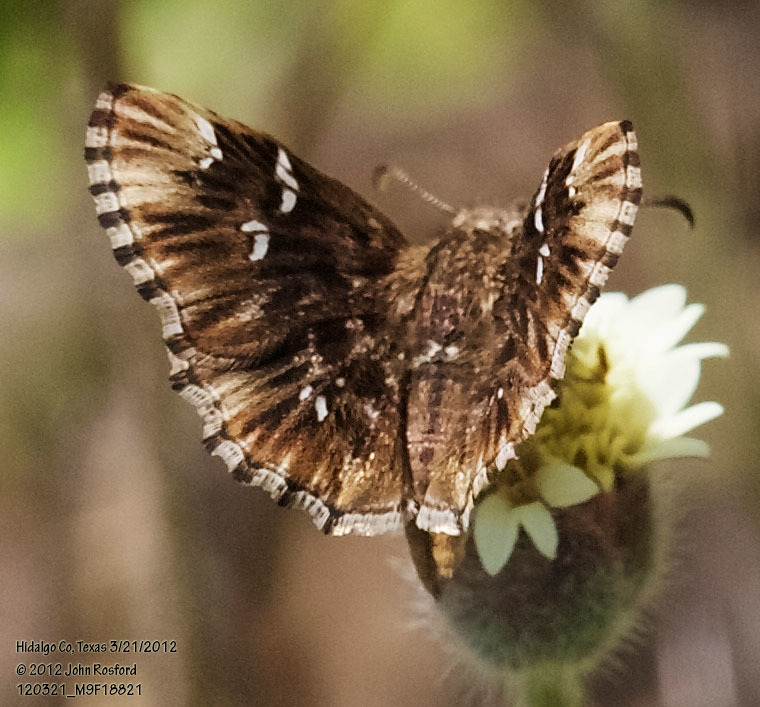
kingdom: Animalia
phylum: Arthropoda
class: Insecta
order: Lepidoptera
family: Hesperiidae
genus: Celotes
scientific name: Celotes nessus
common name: Common streaky-skipper
